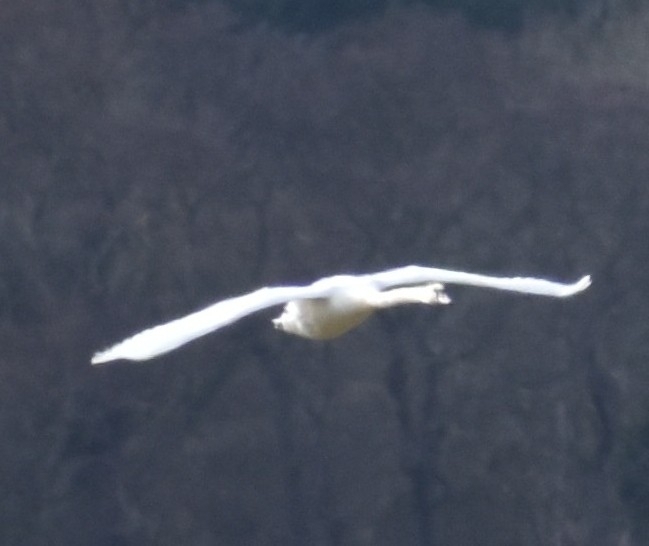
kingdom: Animalia
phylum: Chordata
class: Aves
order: Anseriformes
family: Anatidae
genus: Cygnus
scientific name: Cygnus olor
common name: Mute swan
